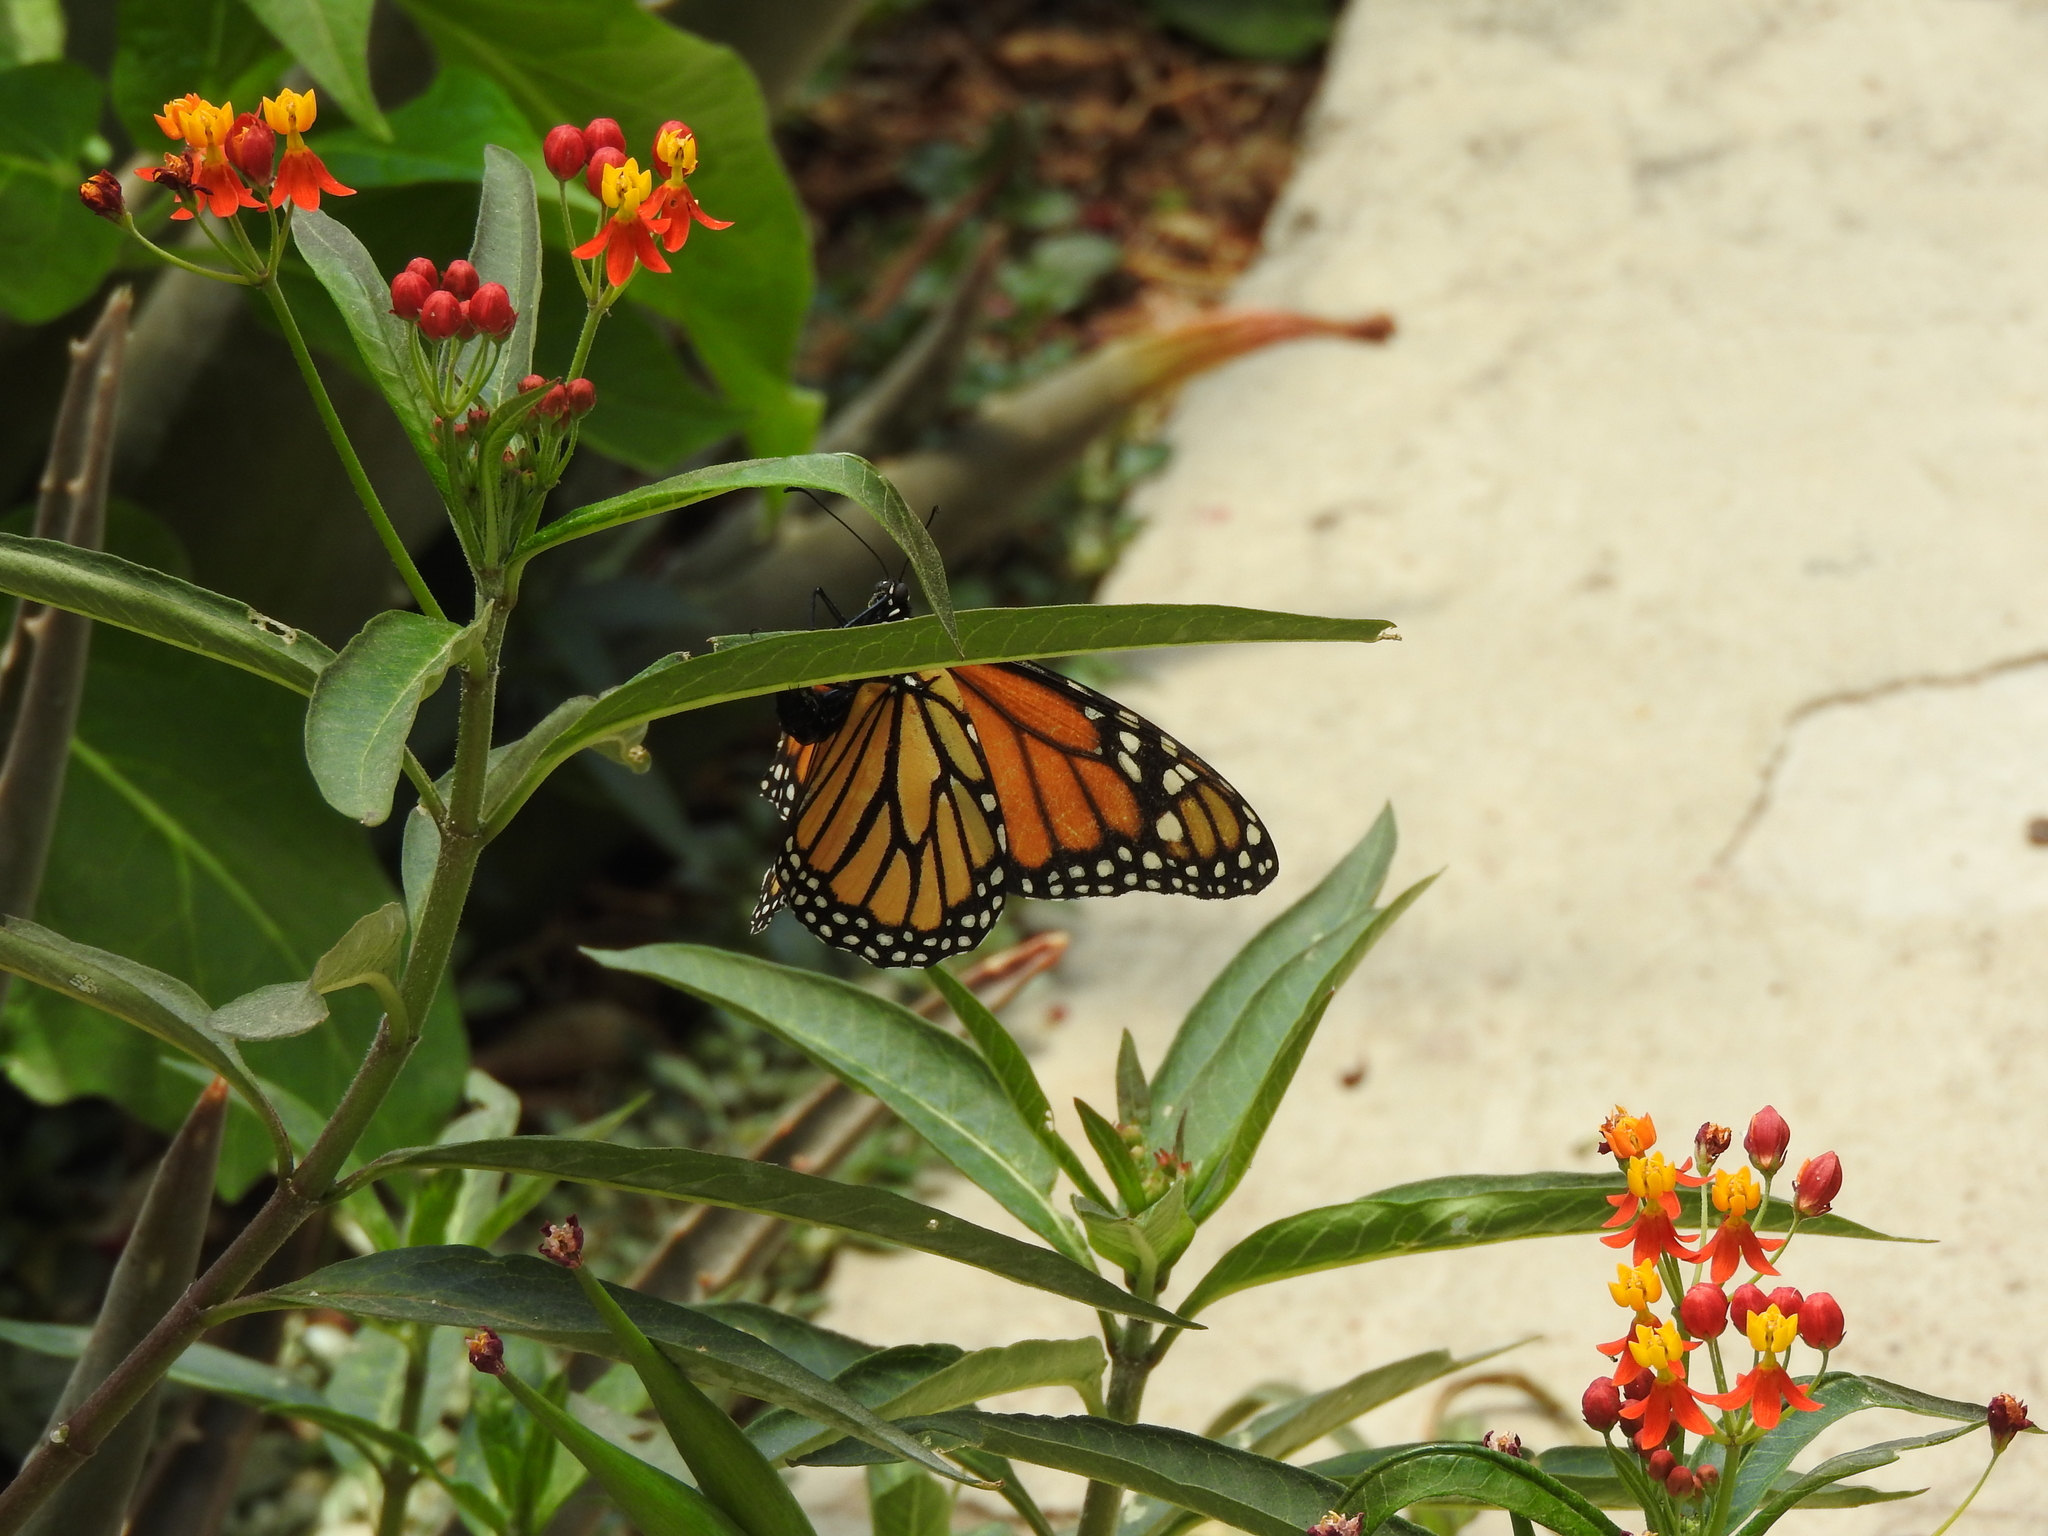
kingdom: Animalia
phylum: Arthropoda
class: Insecta
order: Lepidoptera
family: Nymphalidae
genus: Danaus
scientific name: Danaus plexippus
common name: Monarch
